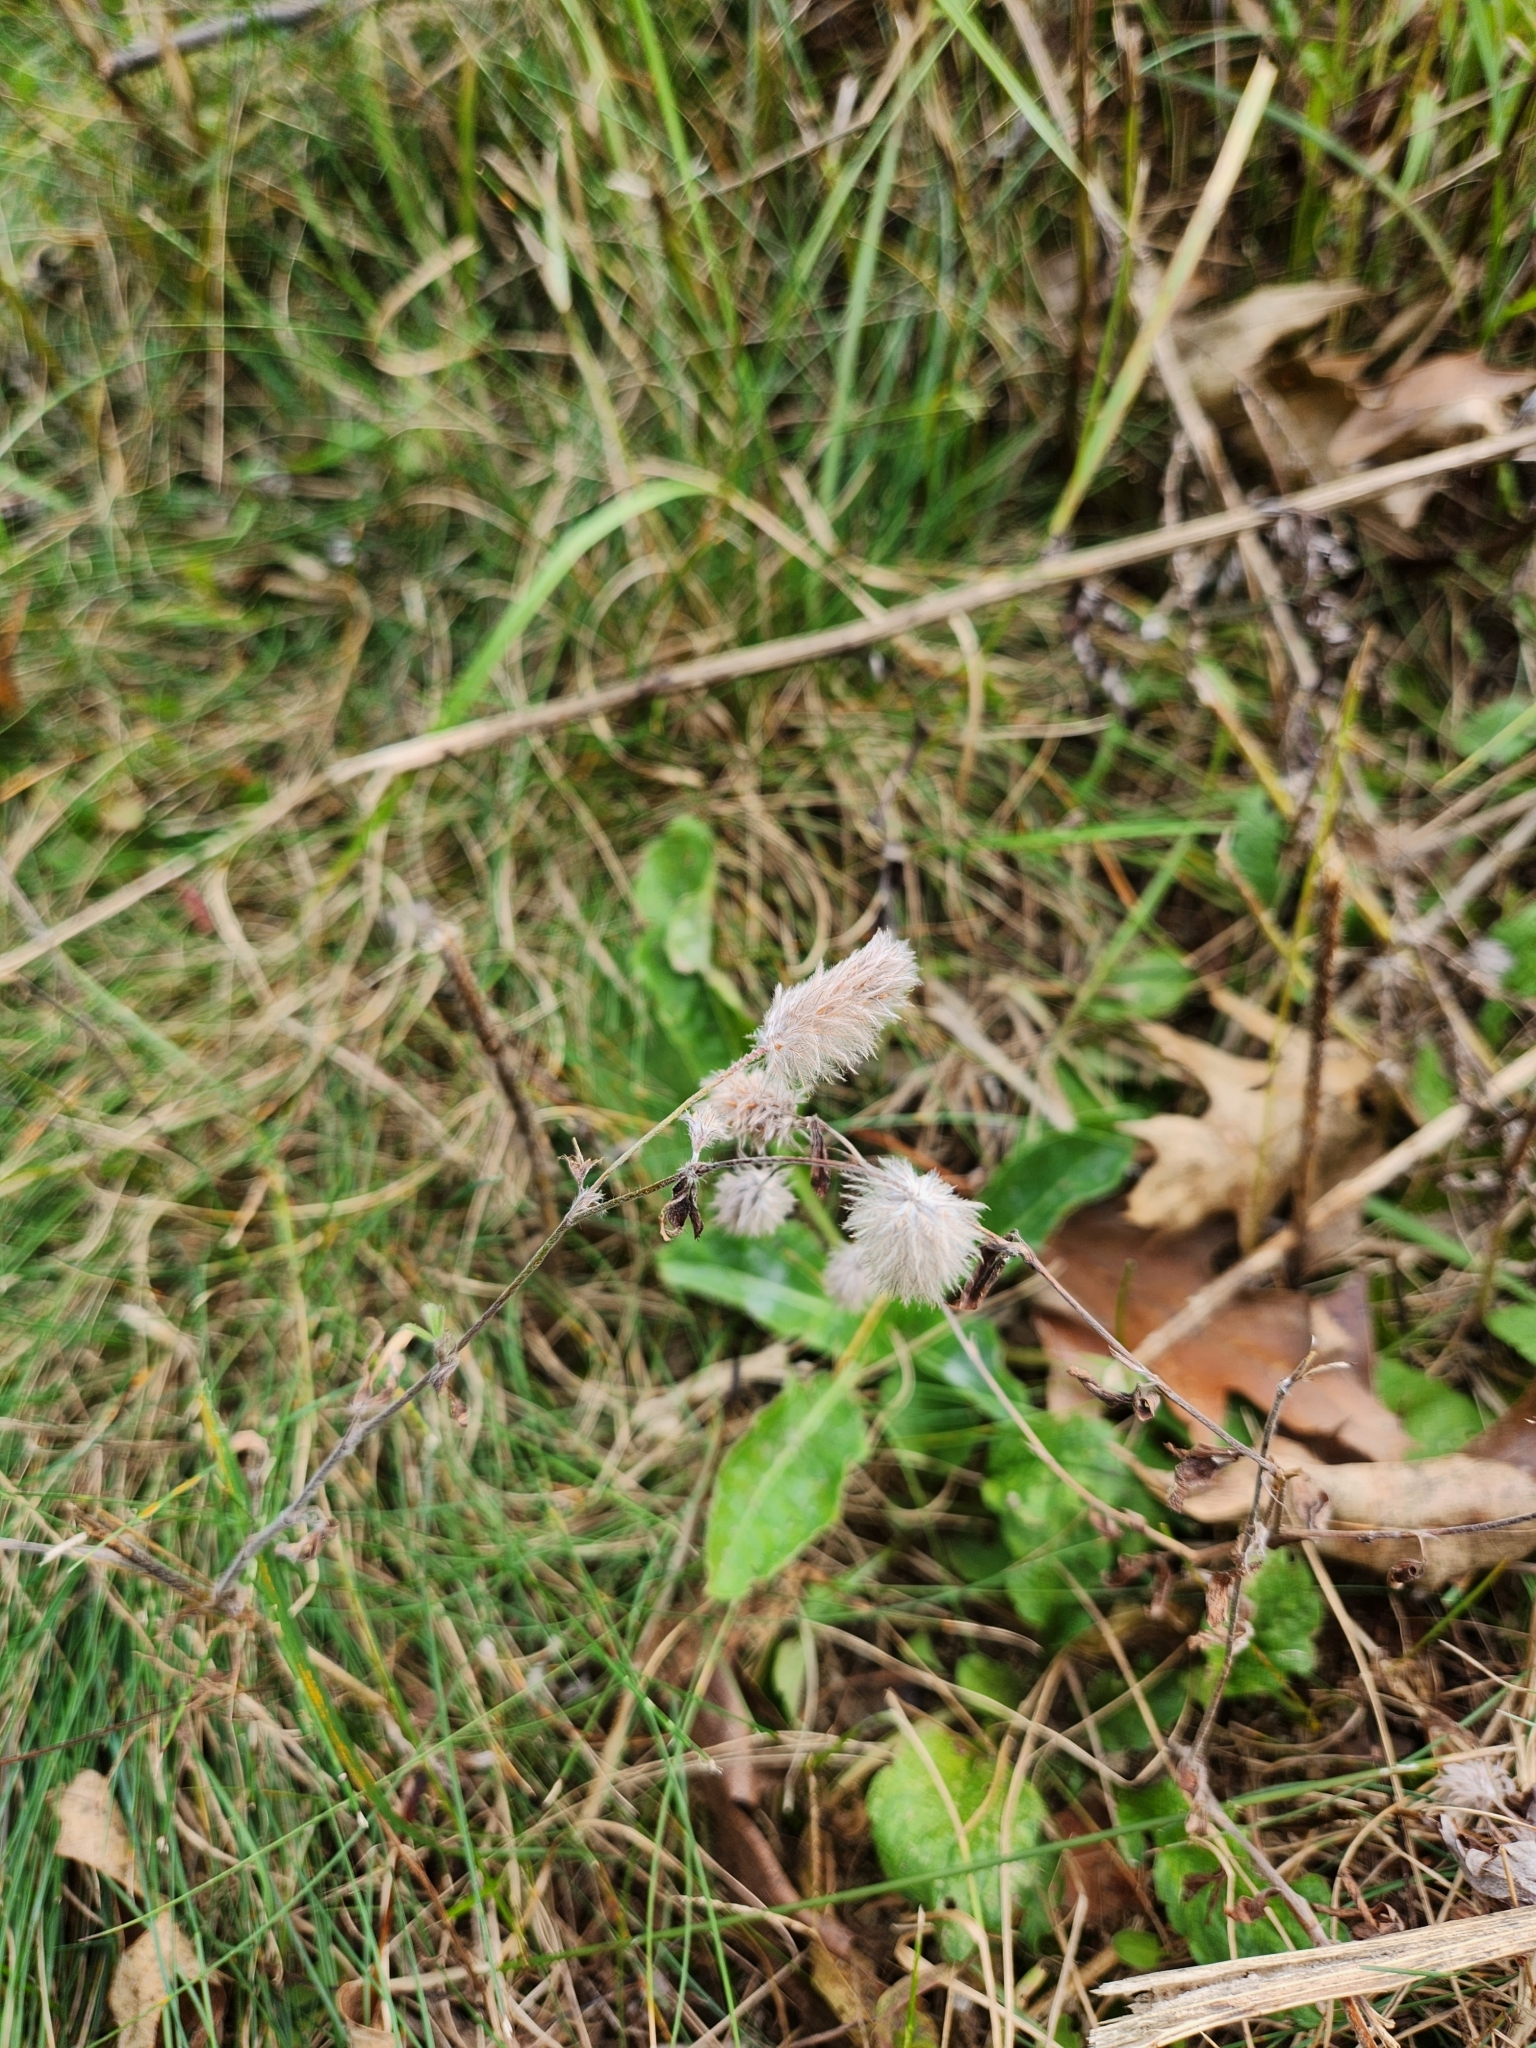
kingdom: Plantae
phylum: Tracheophyta
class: Magnoliopsida
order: Fabales
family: Fabaceae
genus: Trifolium
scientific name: Trifolium arvense
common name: Hare's-foot clover
